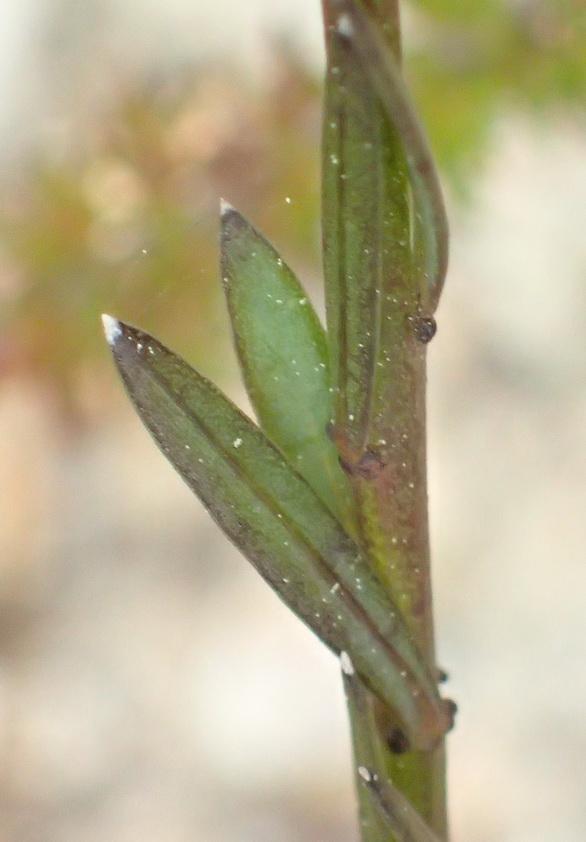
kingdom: Plantae
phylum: Tracheophyta
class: Magnoliopsida
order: Malpighiales
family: Linaceae
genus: Linum
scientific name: Linum africanum
